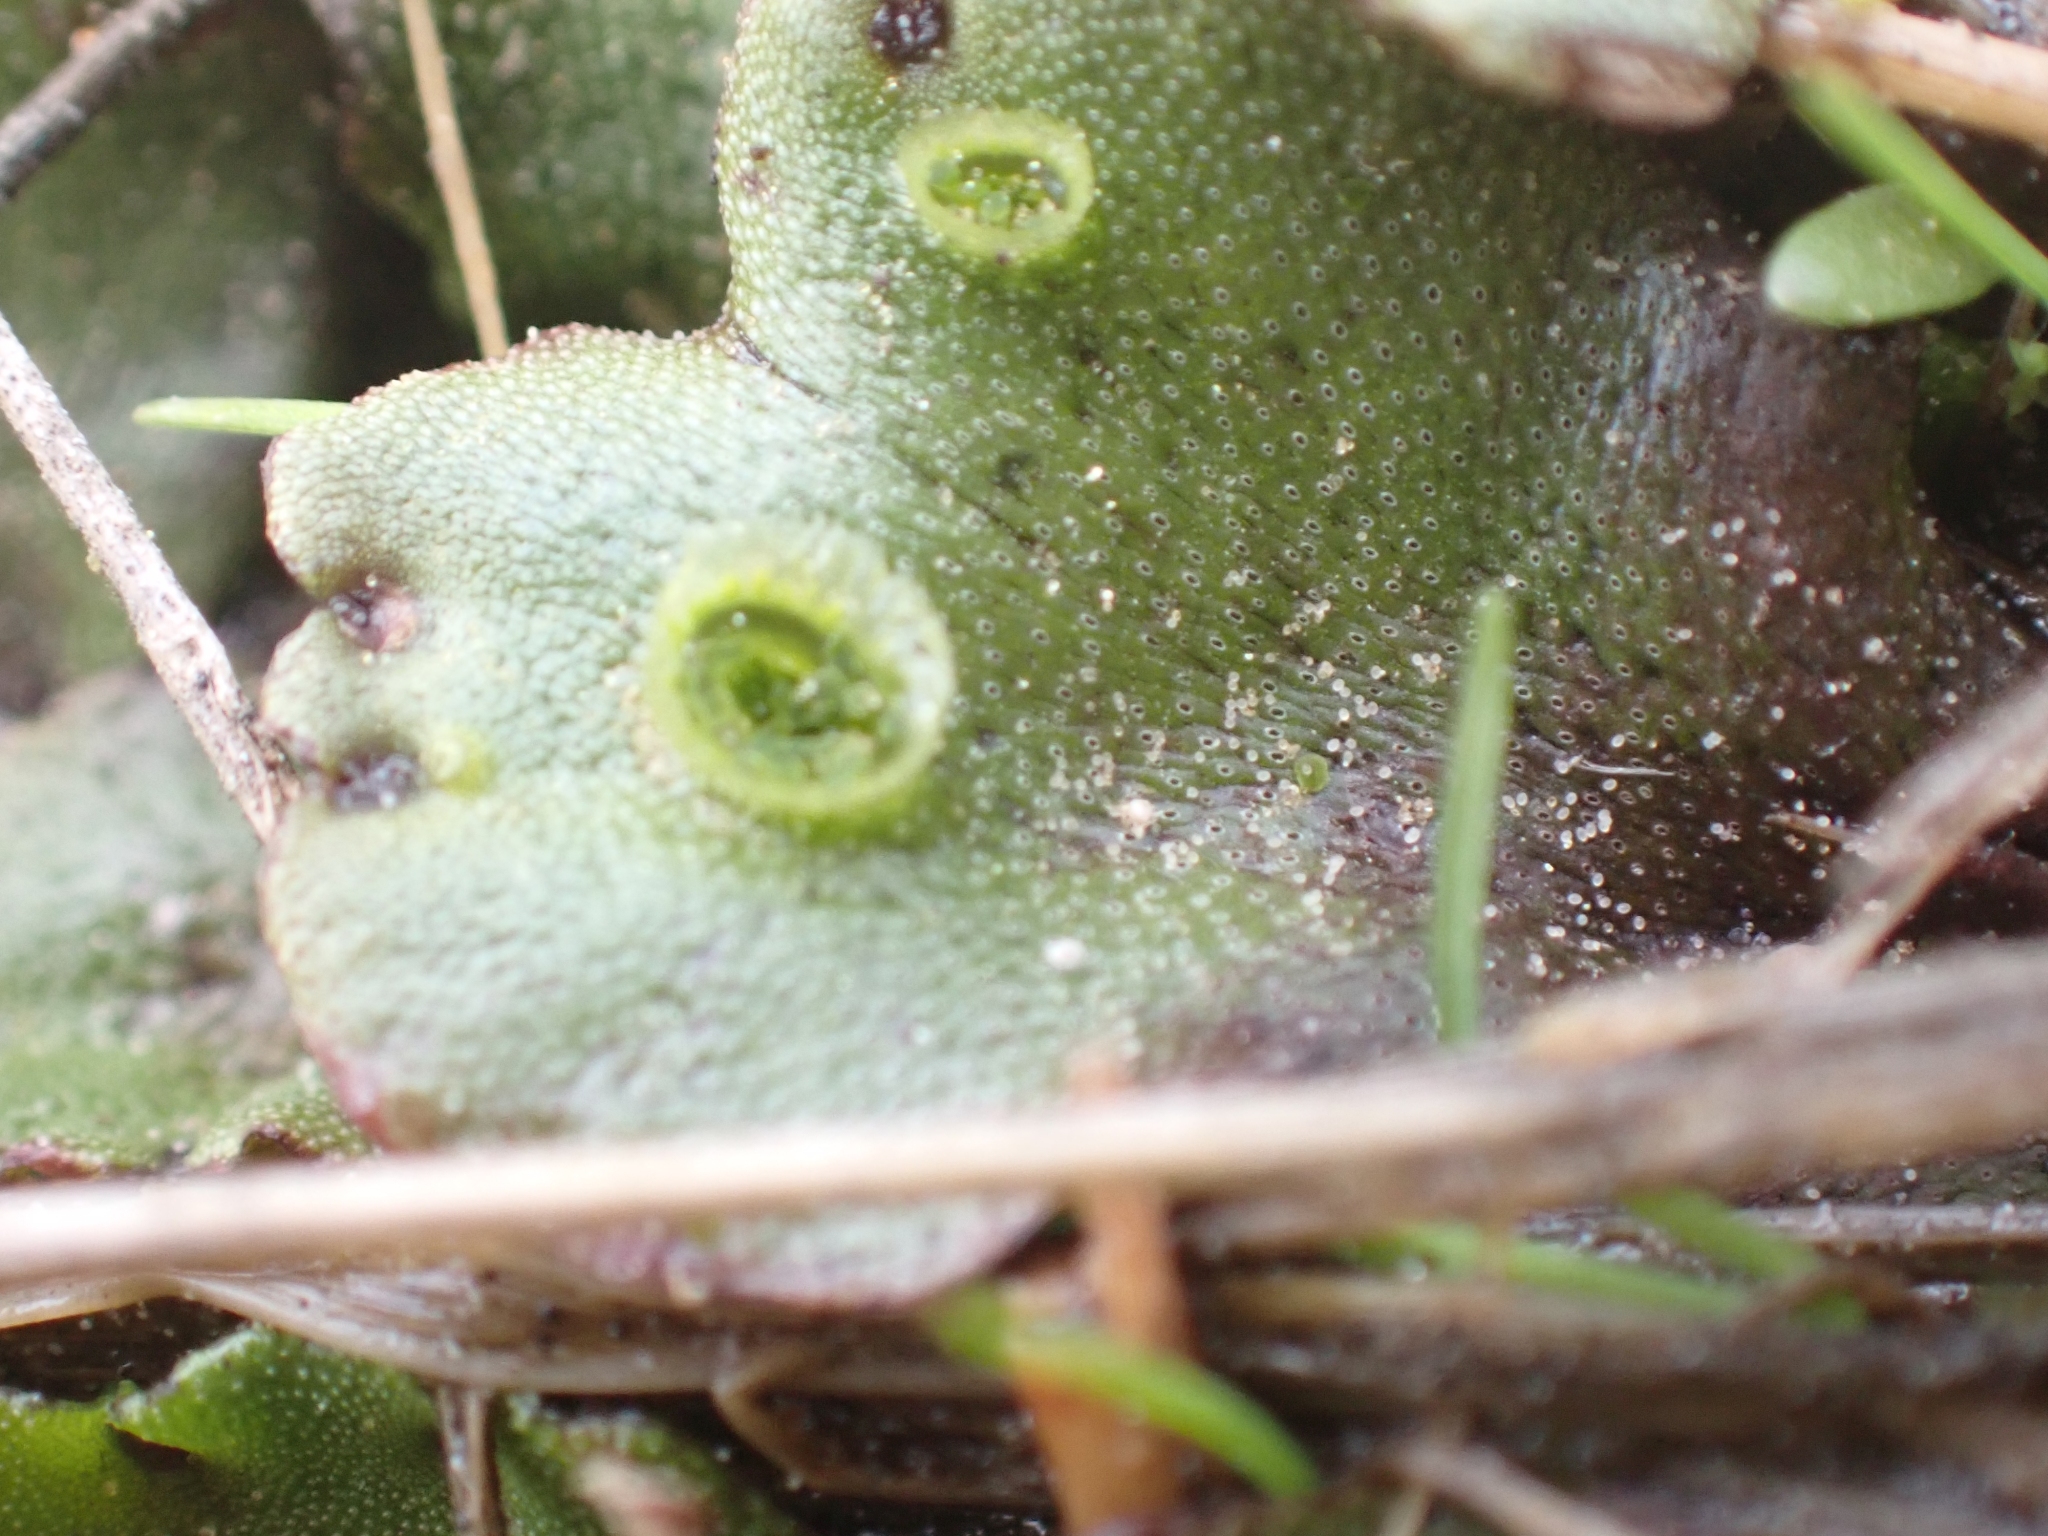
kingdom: Plantae
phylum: Marchantiophyta
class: Marchantiopsida
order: Marchantiales
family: Marchantiaceae
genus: Marchantia
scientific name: Marchantia polymorpha
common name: Common liverwort
